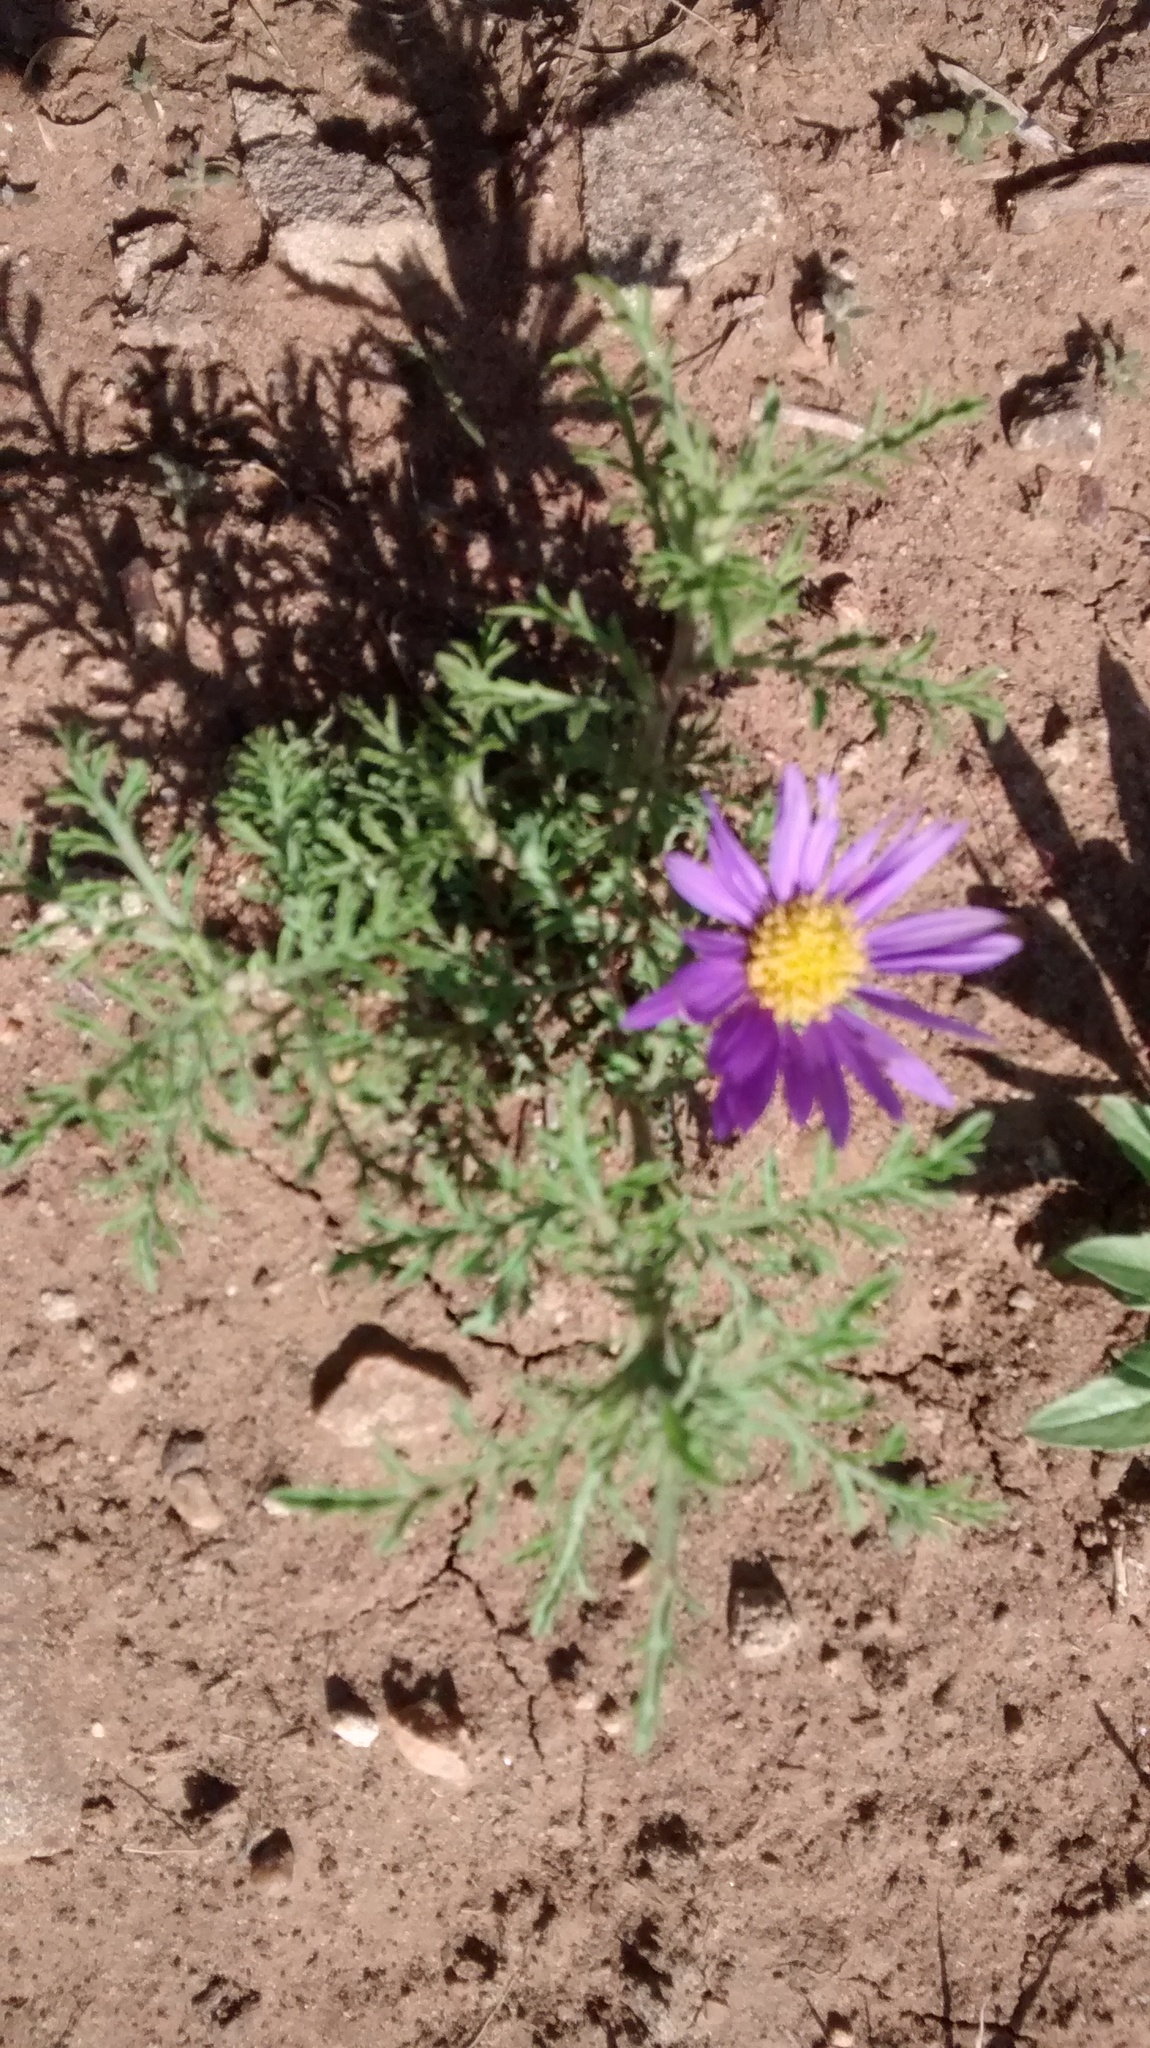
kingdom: Plantae
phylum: Tracheophyta
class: Magnoliopsida
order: Asterales
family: Asteraceae
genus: Machaeranthera
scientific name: Machaeranthera tanacetifolia
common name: Tansy-aster
